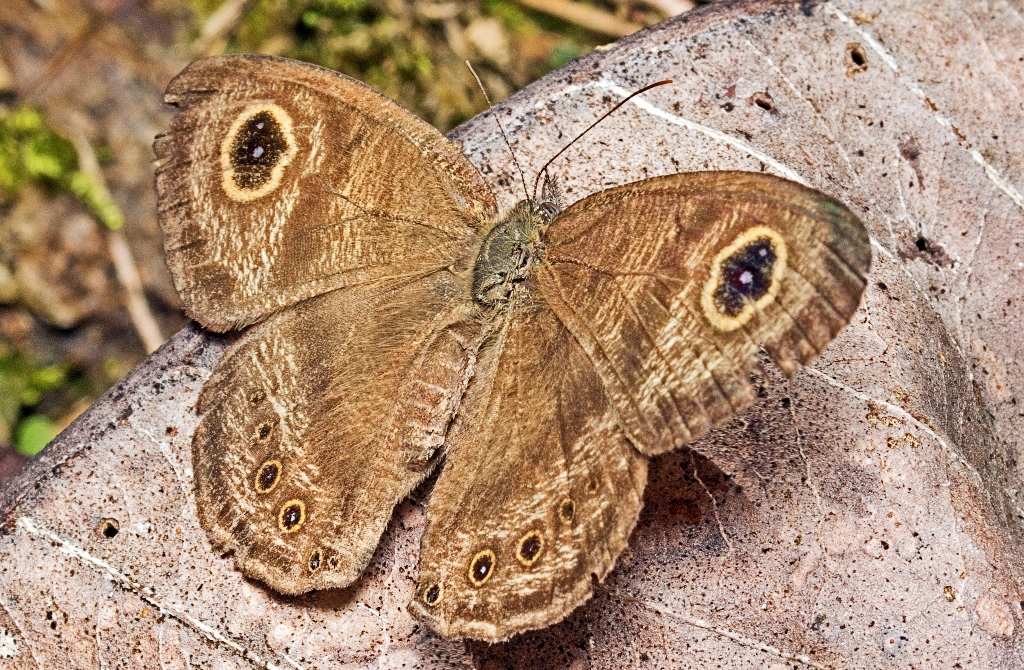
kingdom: Animalia
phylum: Arthropoda
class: Insecta
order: Lepidoptera
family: Nymphalidae
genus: Ypthima
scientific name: Ypthima fasciata
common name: Malayan six-ring
